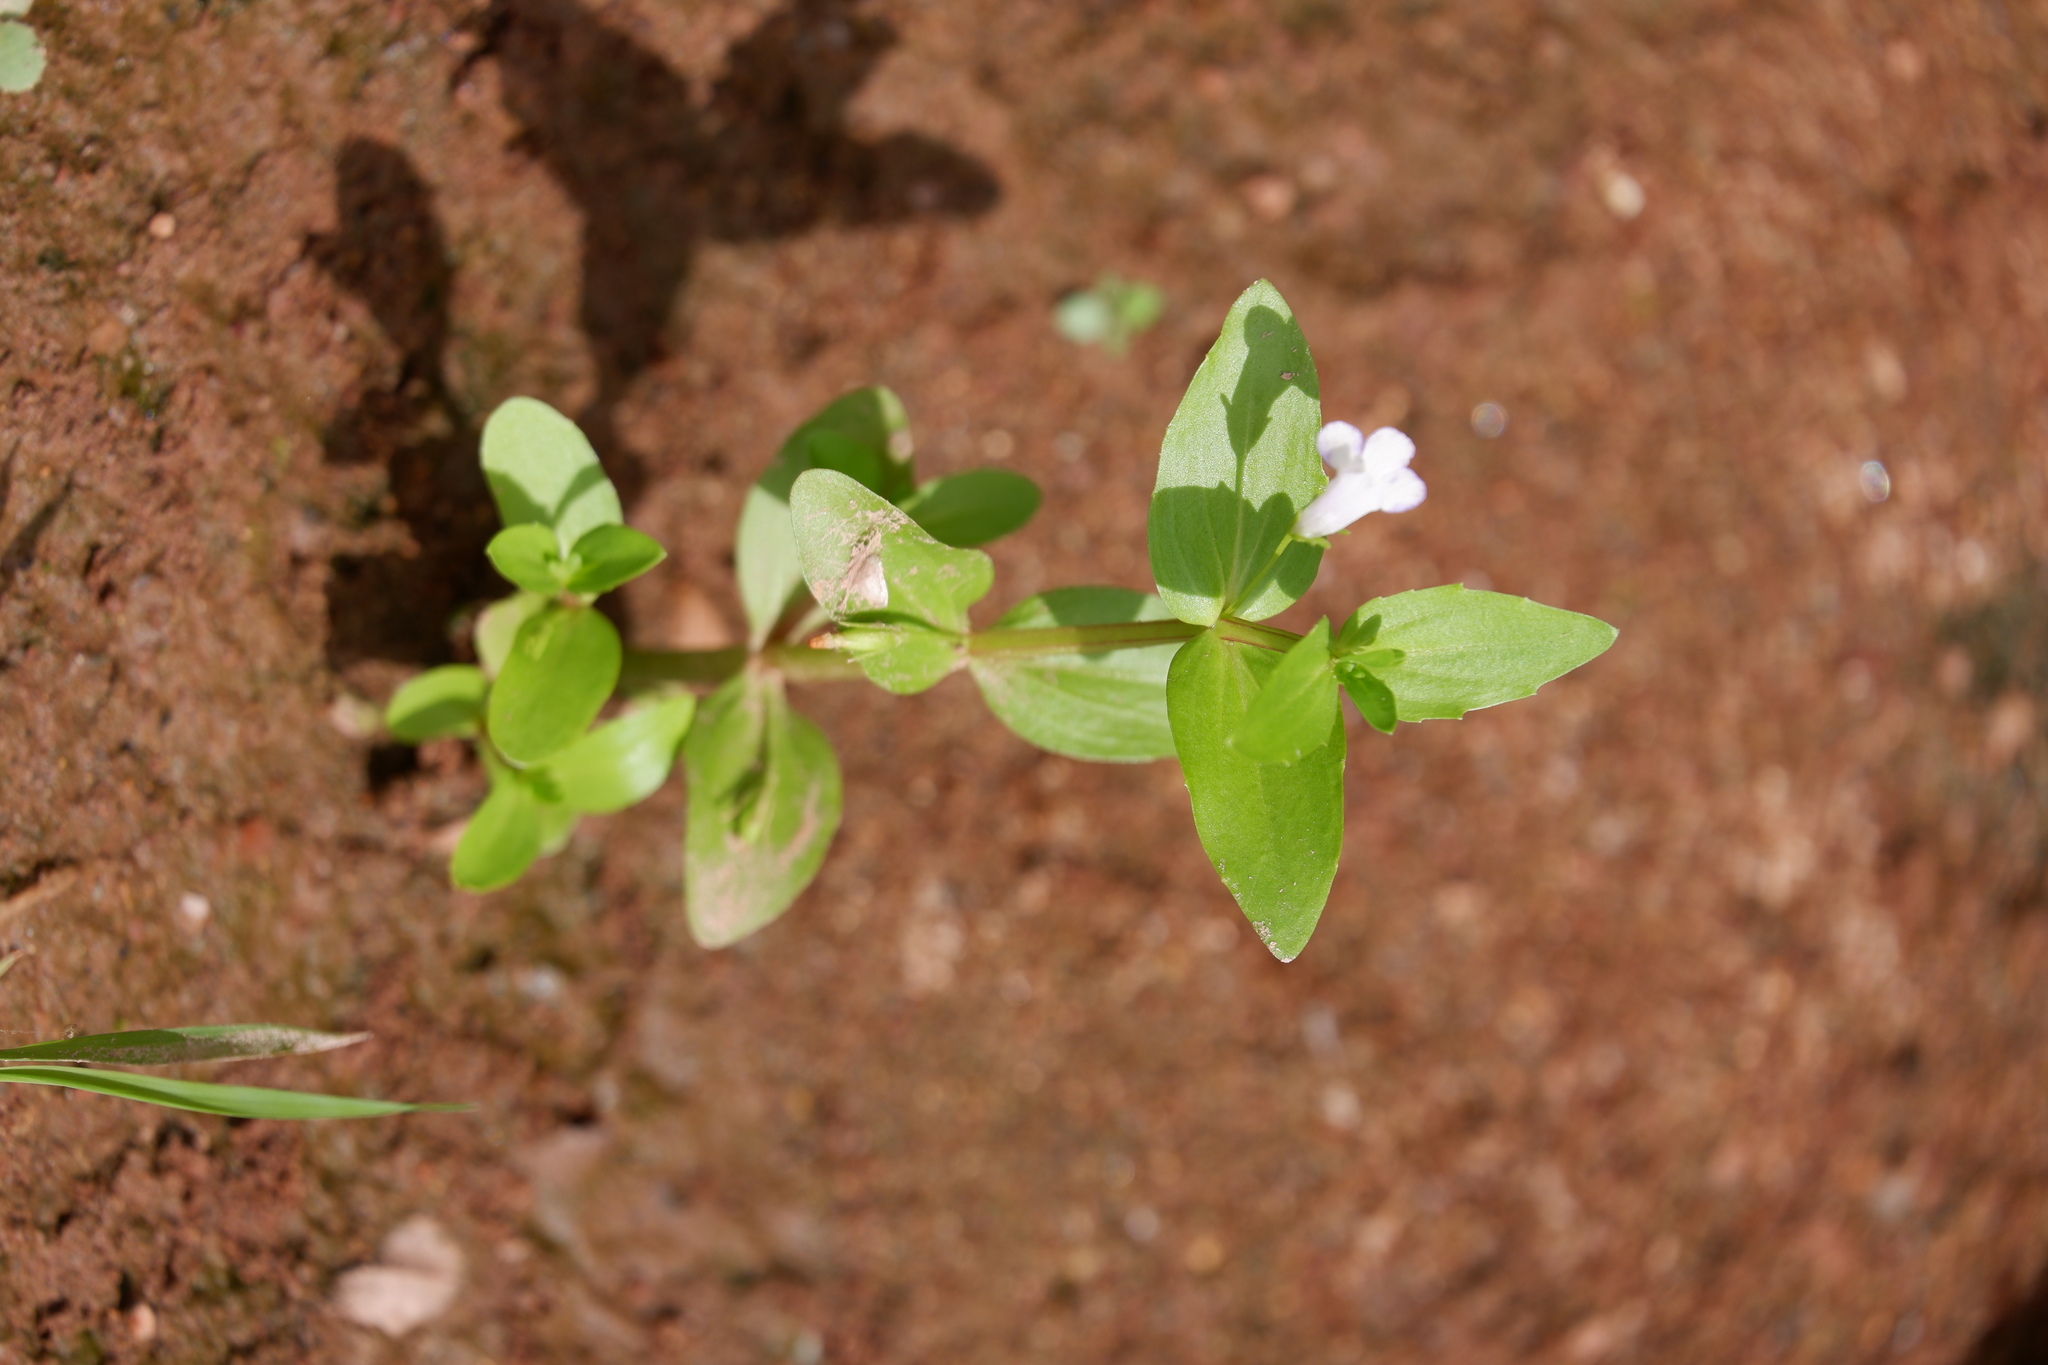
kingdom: Plantae
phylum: Tracheophyta
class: Magnoliopsida
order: Lamiales
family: Linderniaceae
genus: Lindernia
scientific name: Lindernia dubia
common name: Annual false pimpernel
